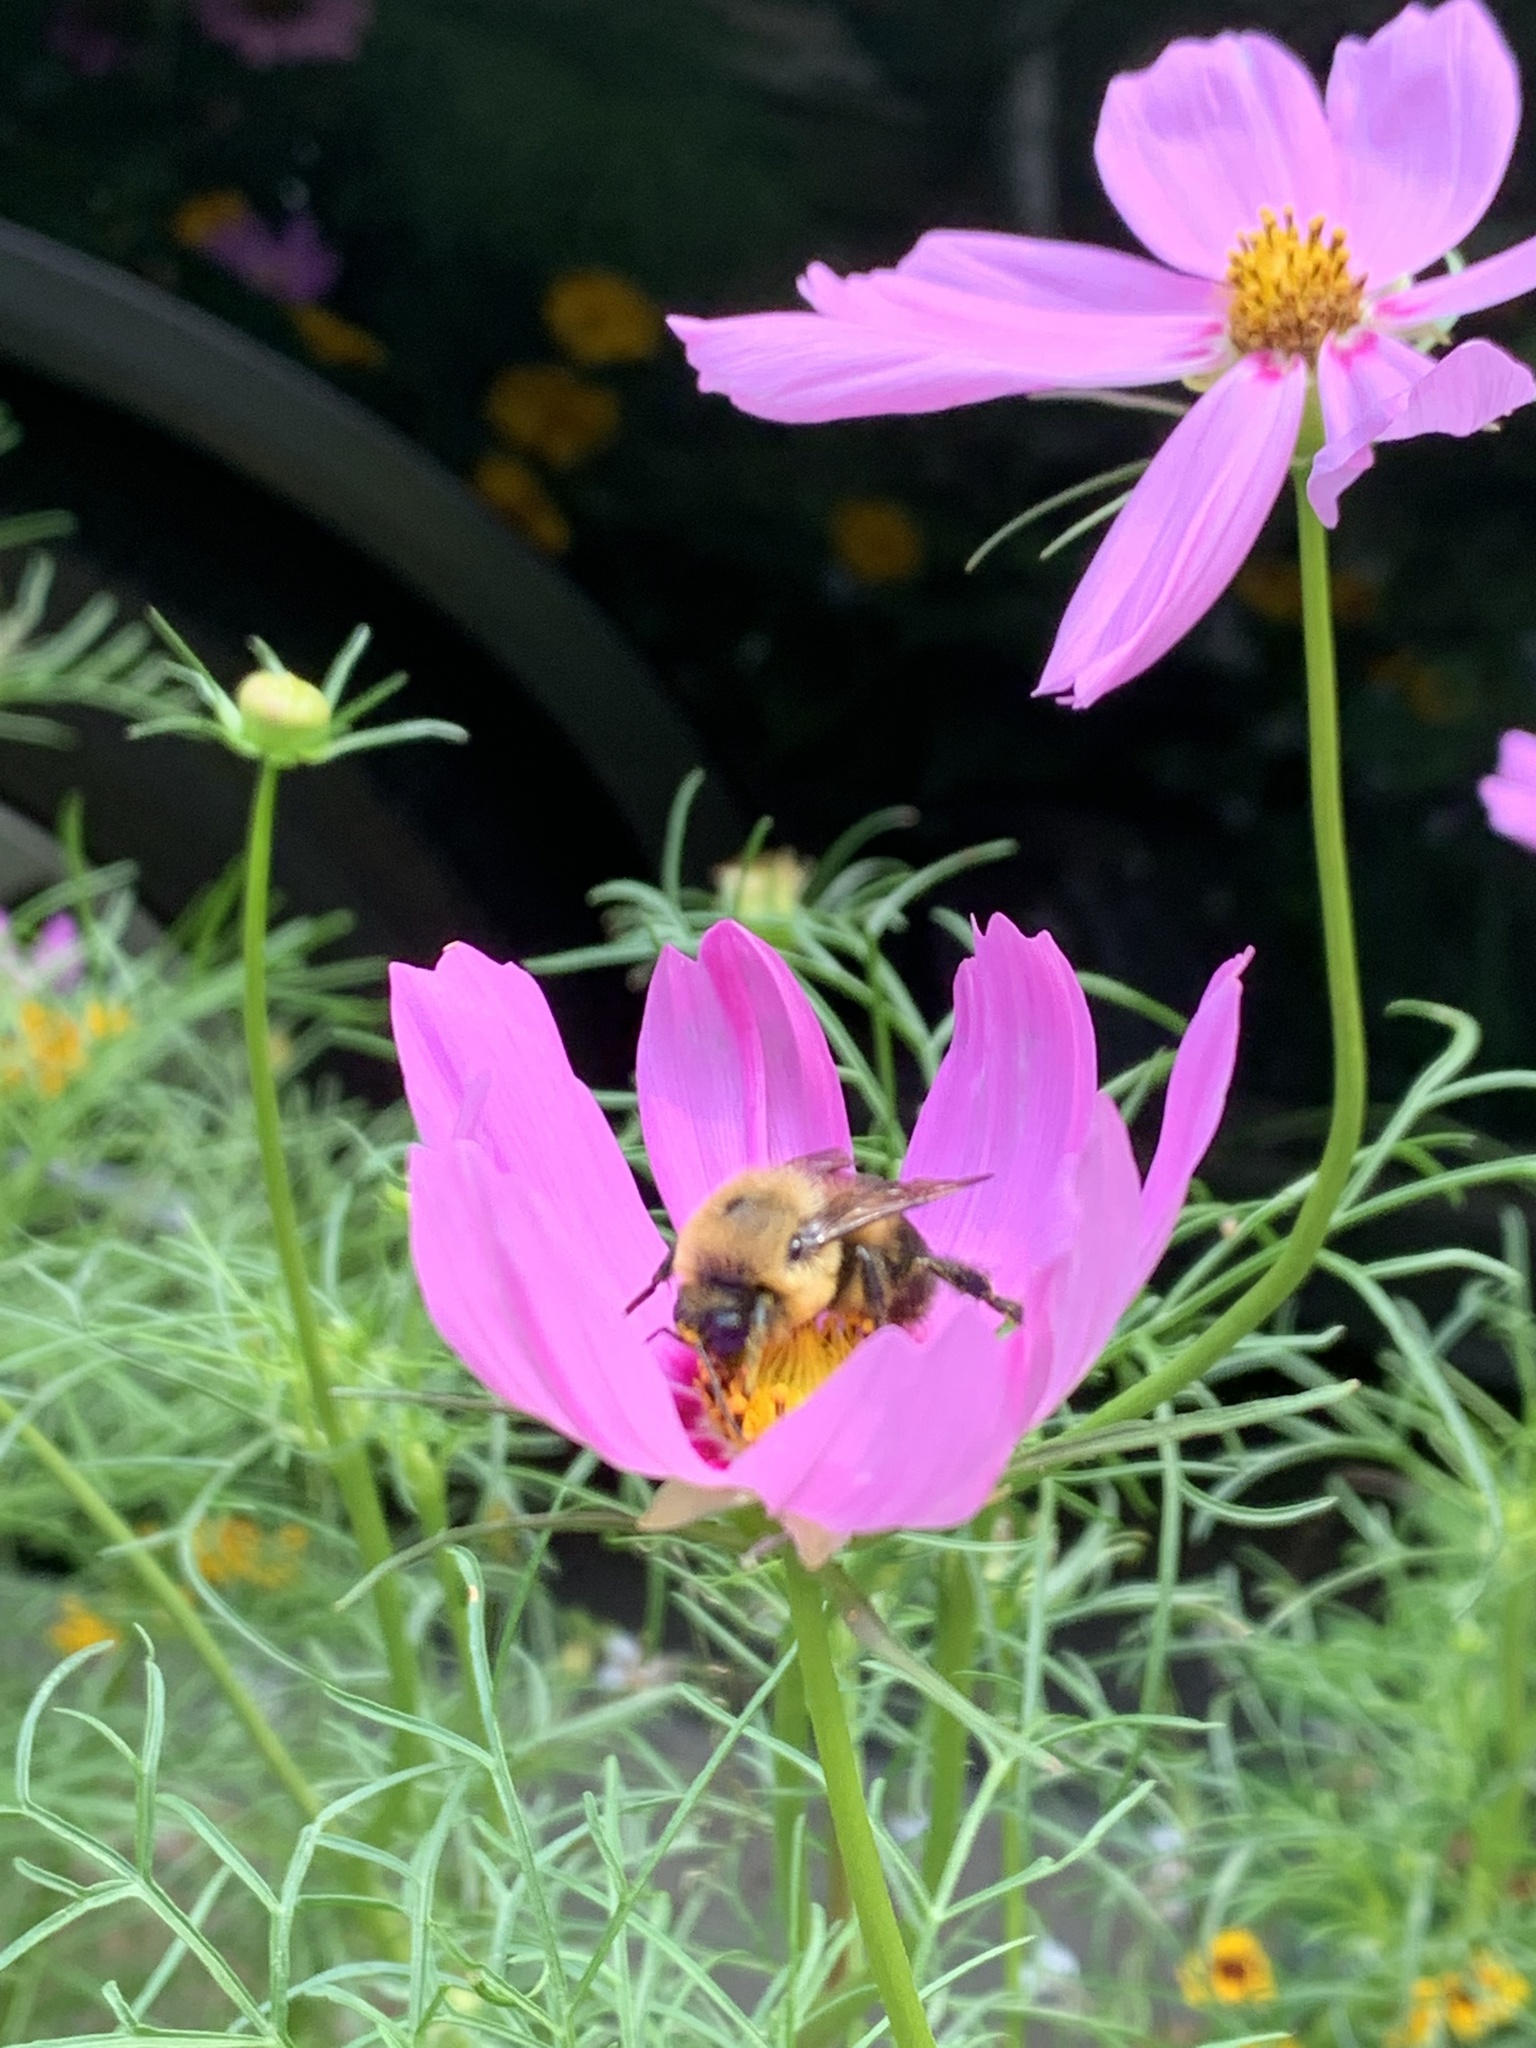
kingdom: Animalia
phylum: Arthropoda
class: Insecta
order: Hymenoptera
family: Apidae
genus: Bombus
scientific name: Bombus griseocollis
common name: Brown-belted bumble bee
